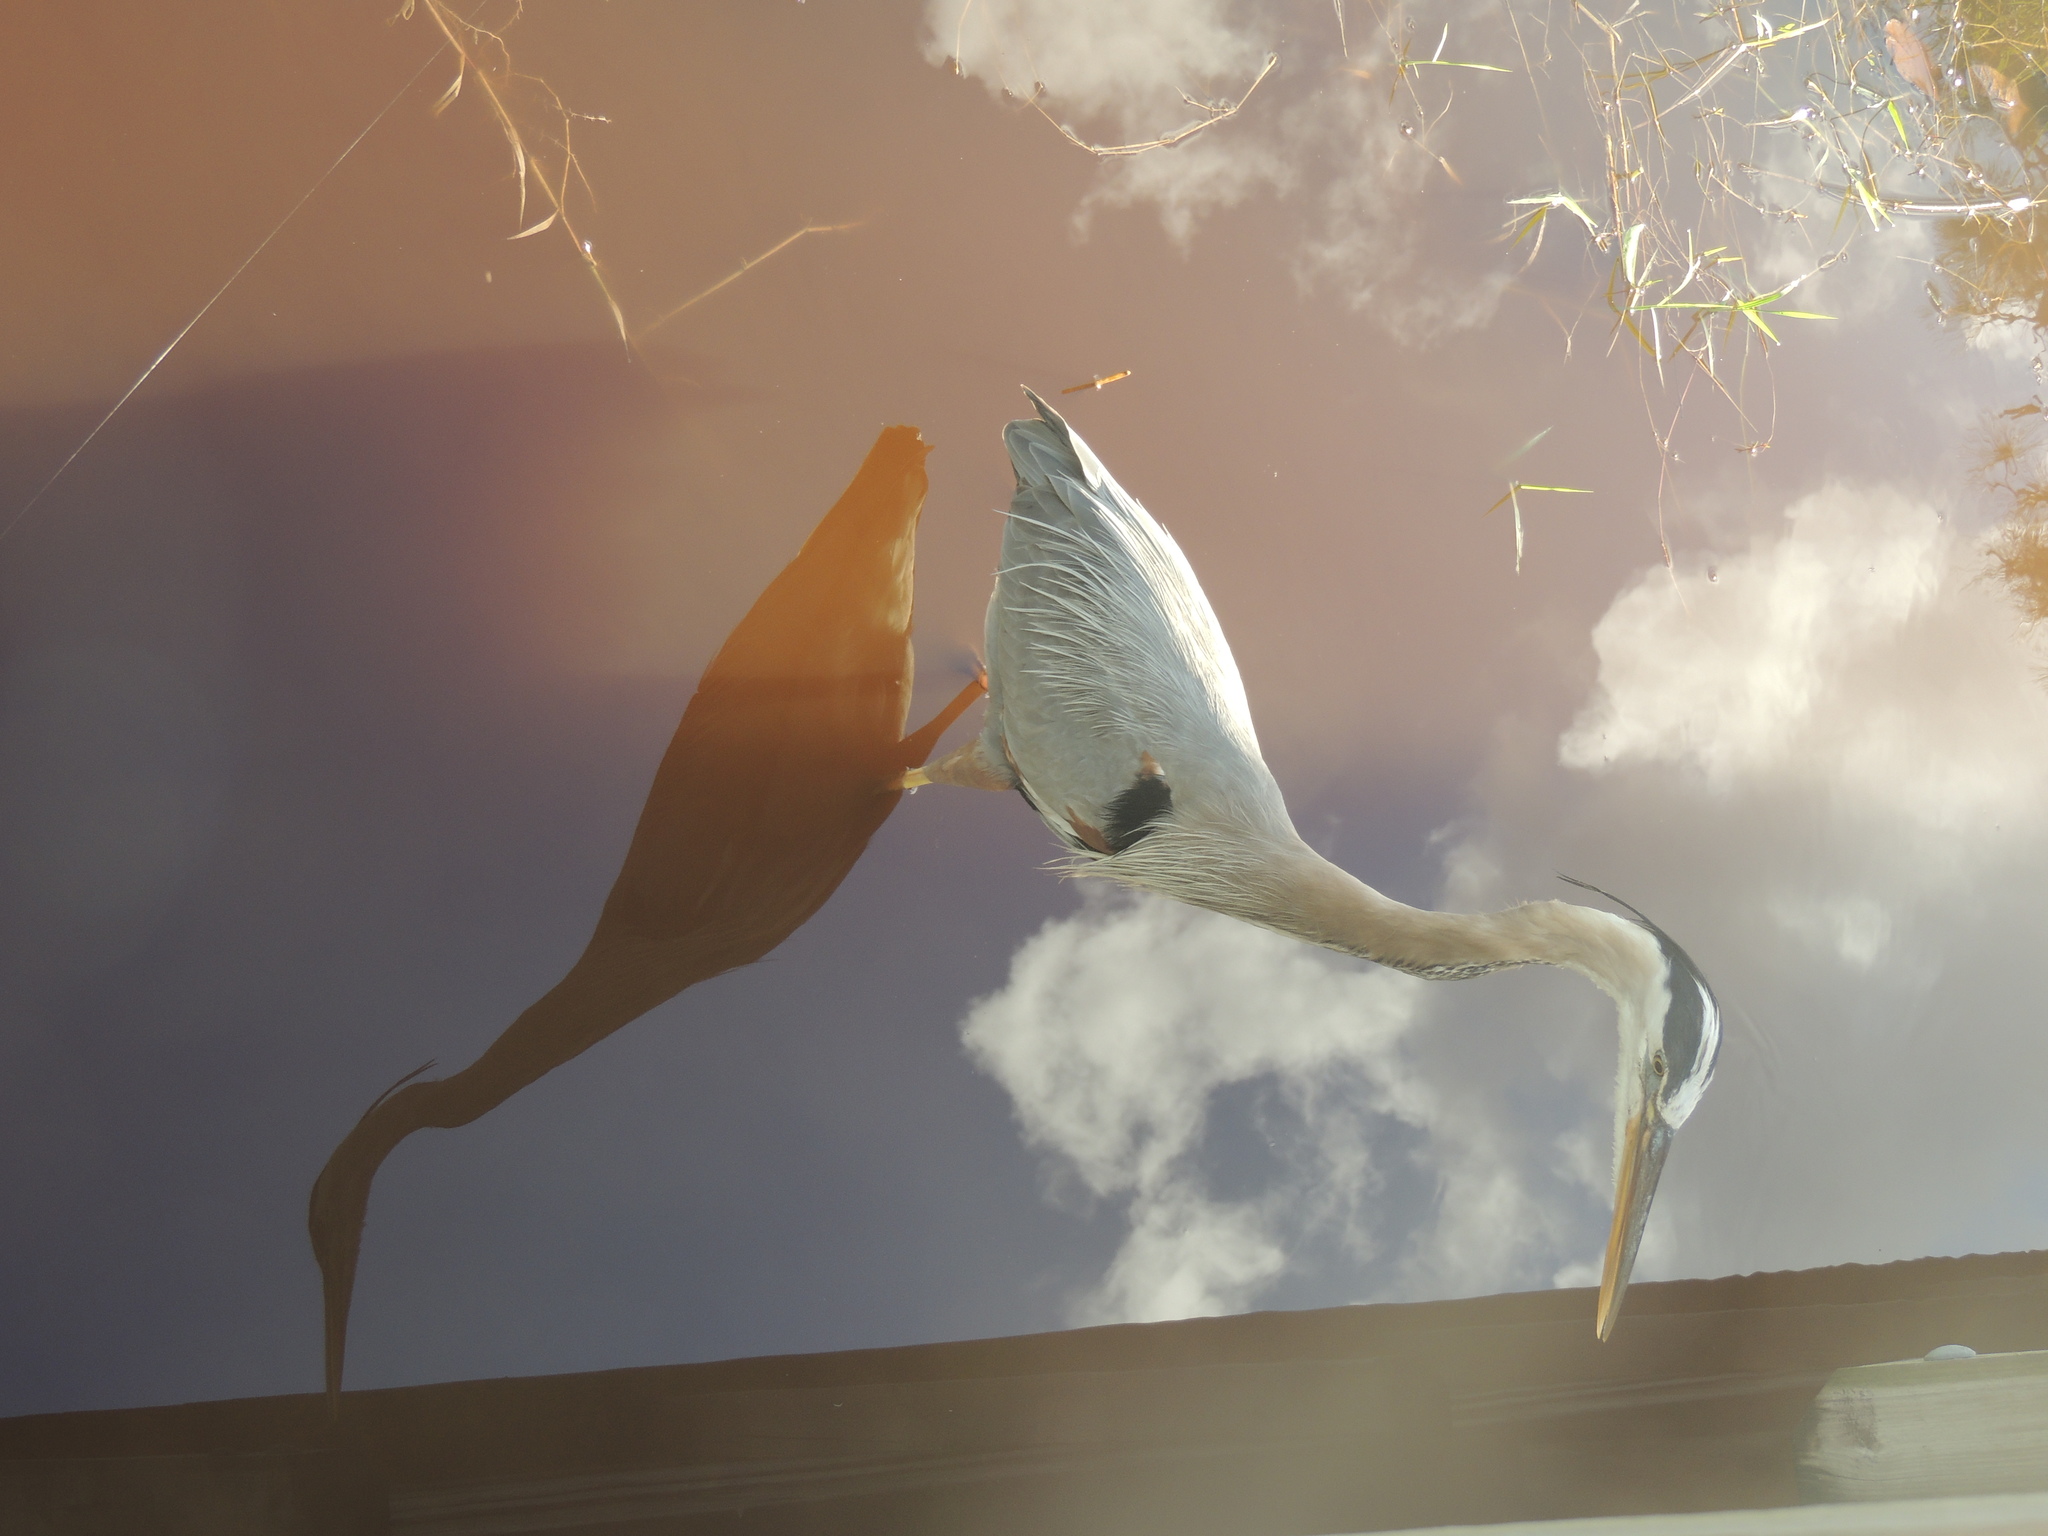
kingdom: Animalia
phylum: Chordata
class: Aves
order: Pelecaniformes
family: Ardeidae
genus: Ardea
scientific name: Ardea herodias
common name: Great blue heron
